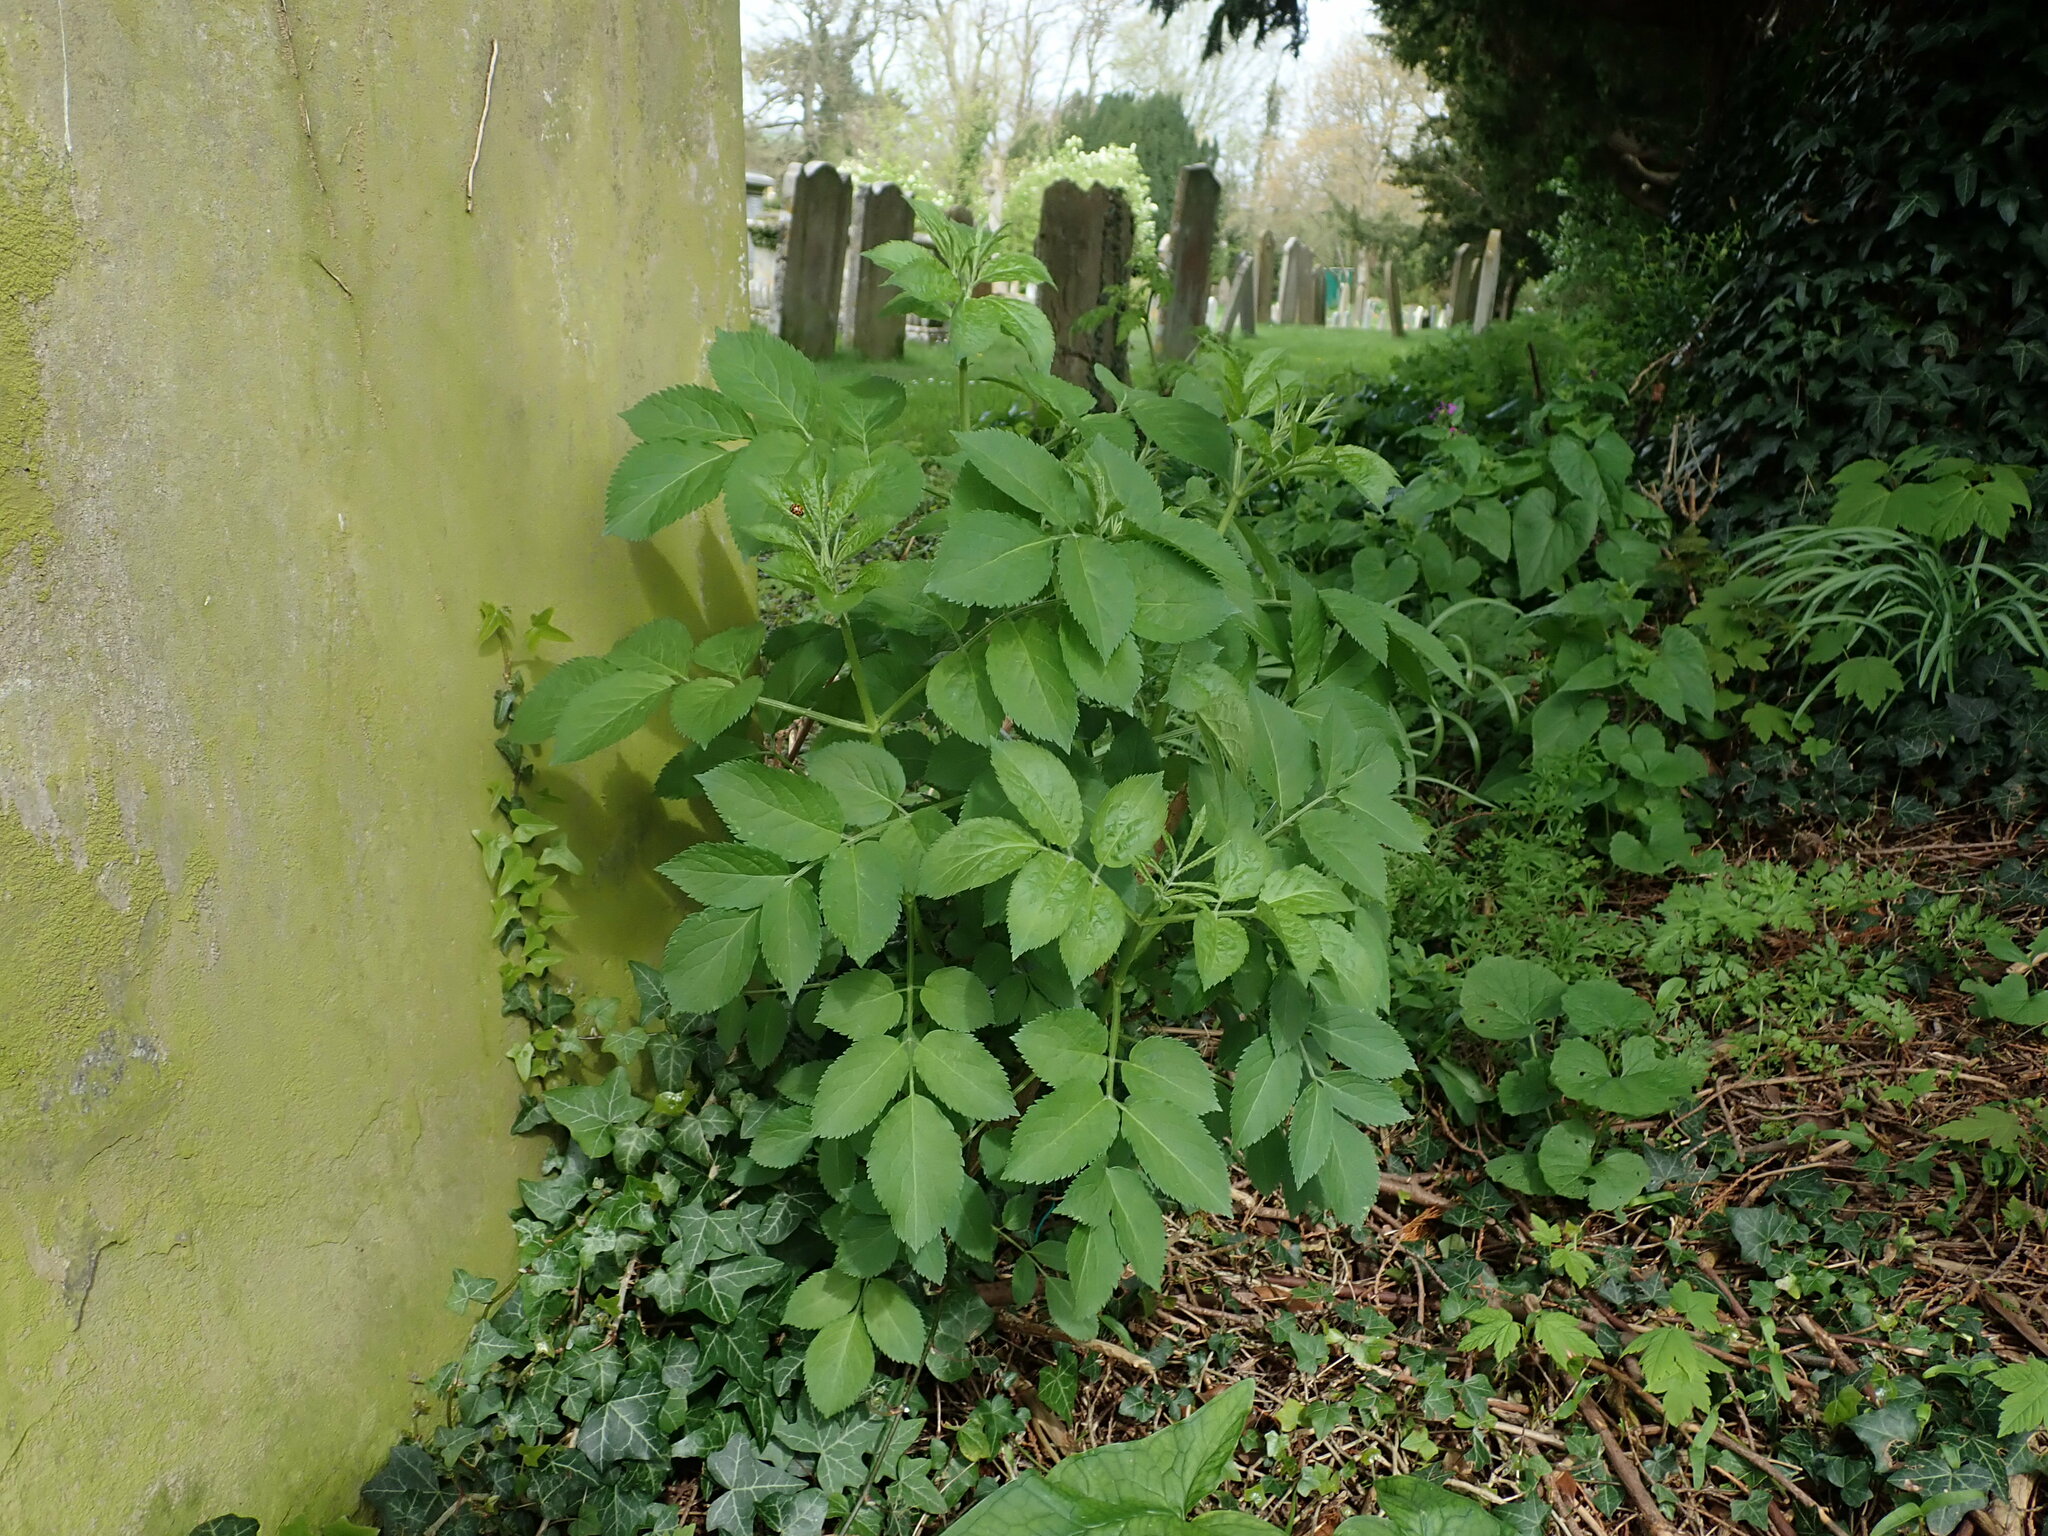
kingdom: Plantae
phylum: Tracheophyta
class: Magnoliopsida
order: Dipsacales
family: Viburnaceae
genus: Sambucus
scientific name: Sambucus nigra
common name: Elder
